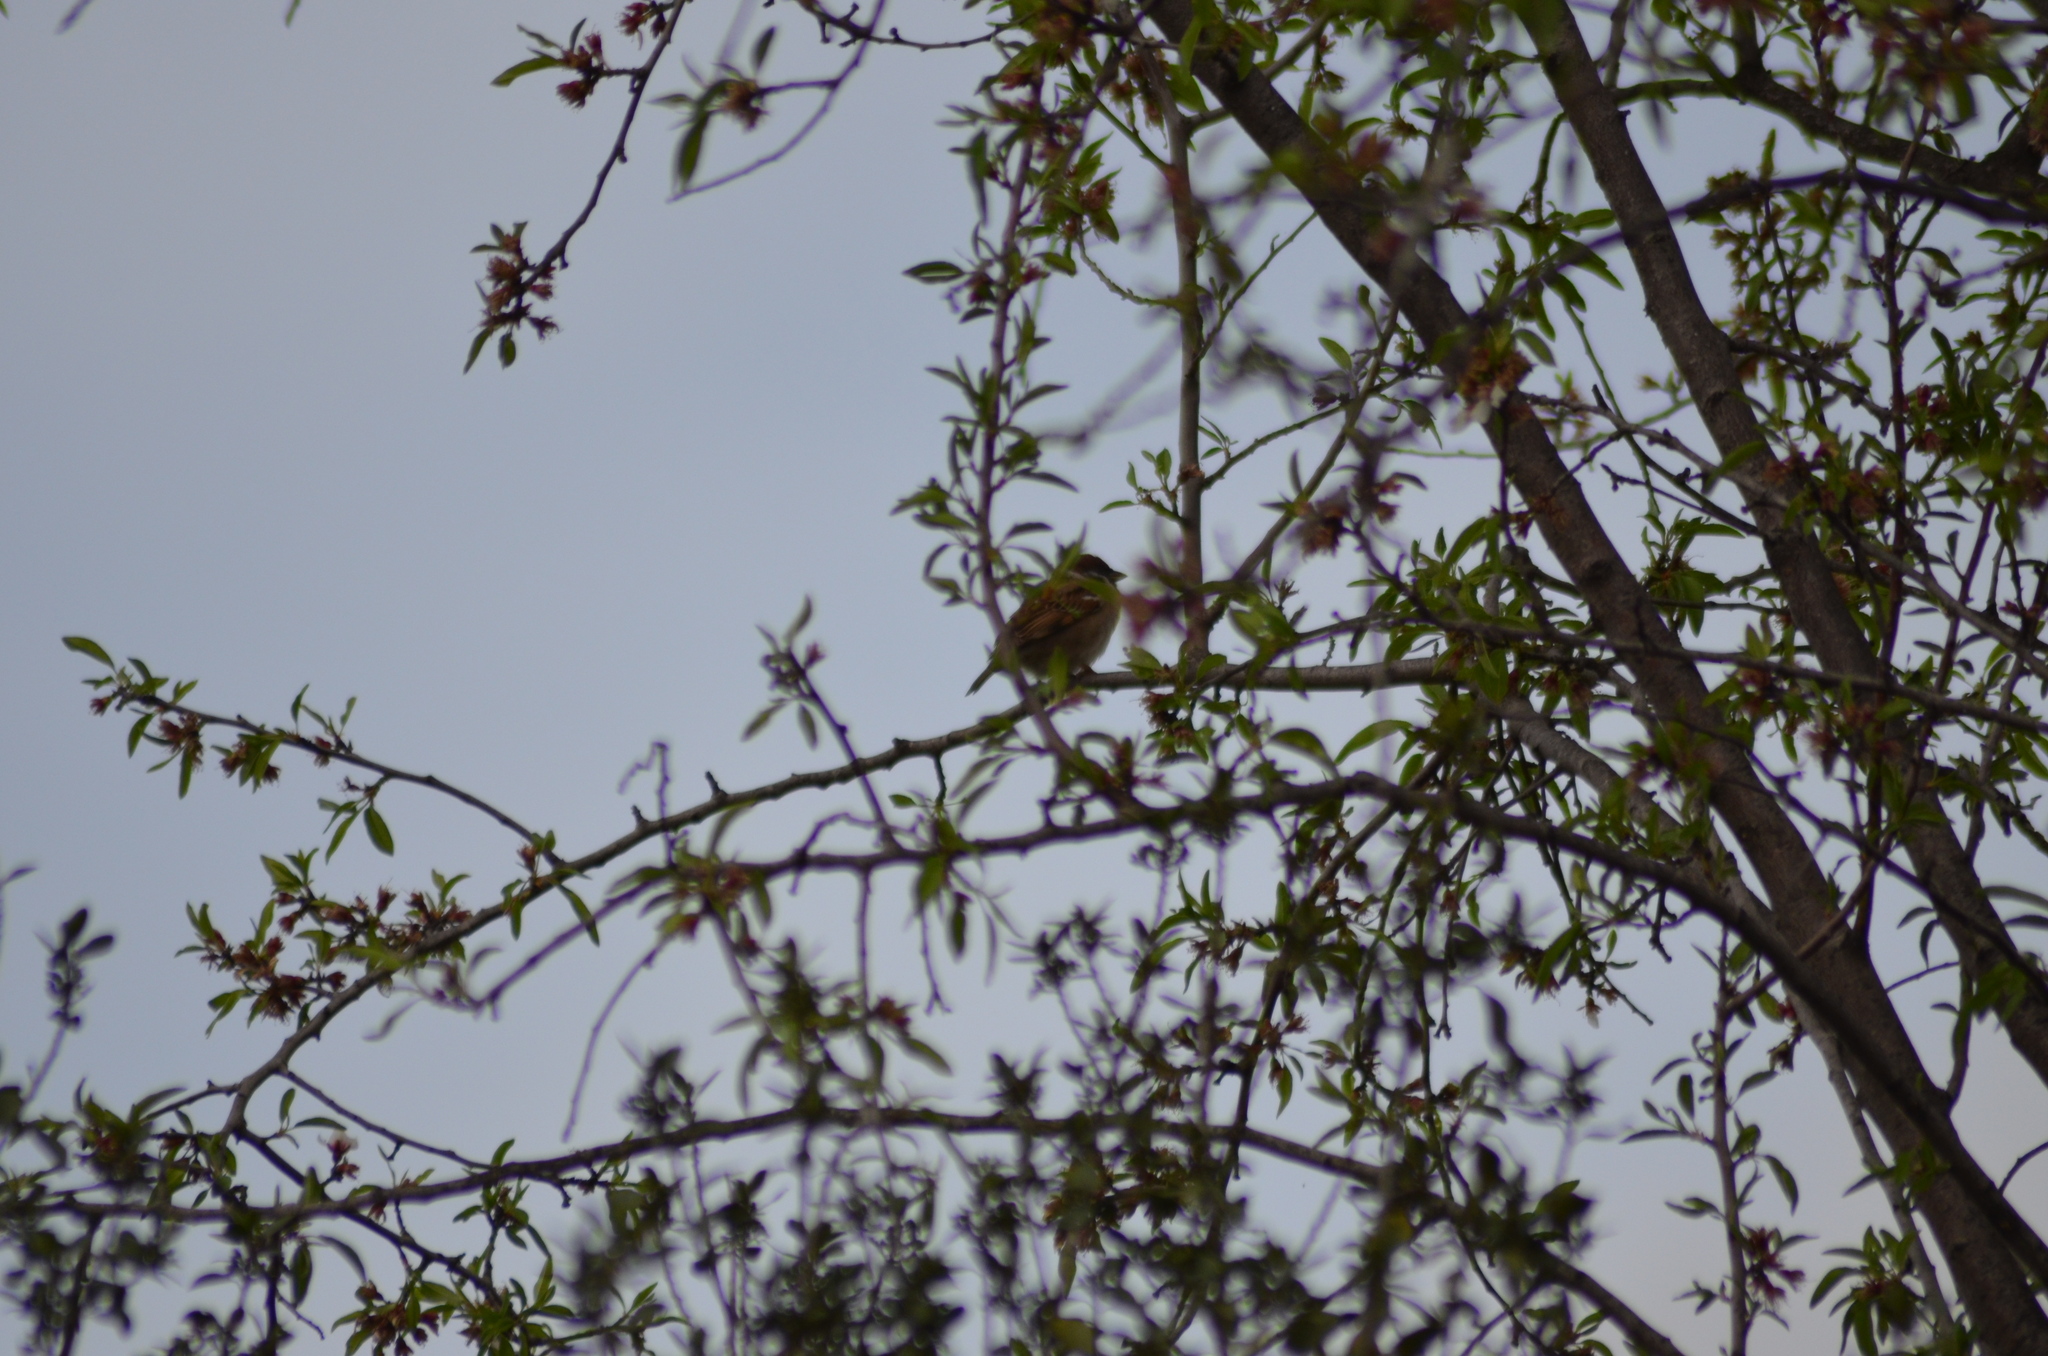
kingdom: Animalia
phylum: Chordata
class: Aves
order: Passeriformes
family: Passeridae
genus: Passer
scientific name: Passer montanus
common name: Eurasian tree sparrow
